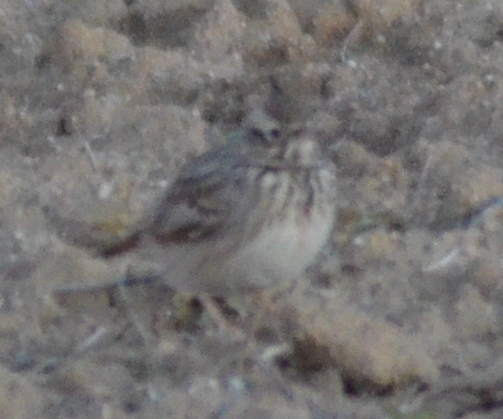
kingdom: Animalia
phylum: Chordata
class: Aves
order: Passeriformes
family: Alaudidae
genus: Galerida
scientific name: Galerida cristata
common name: Crested lark
